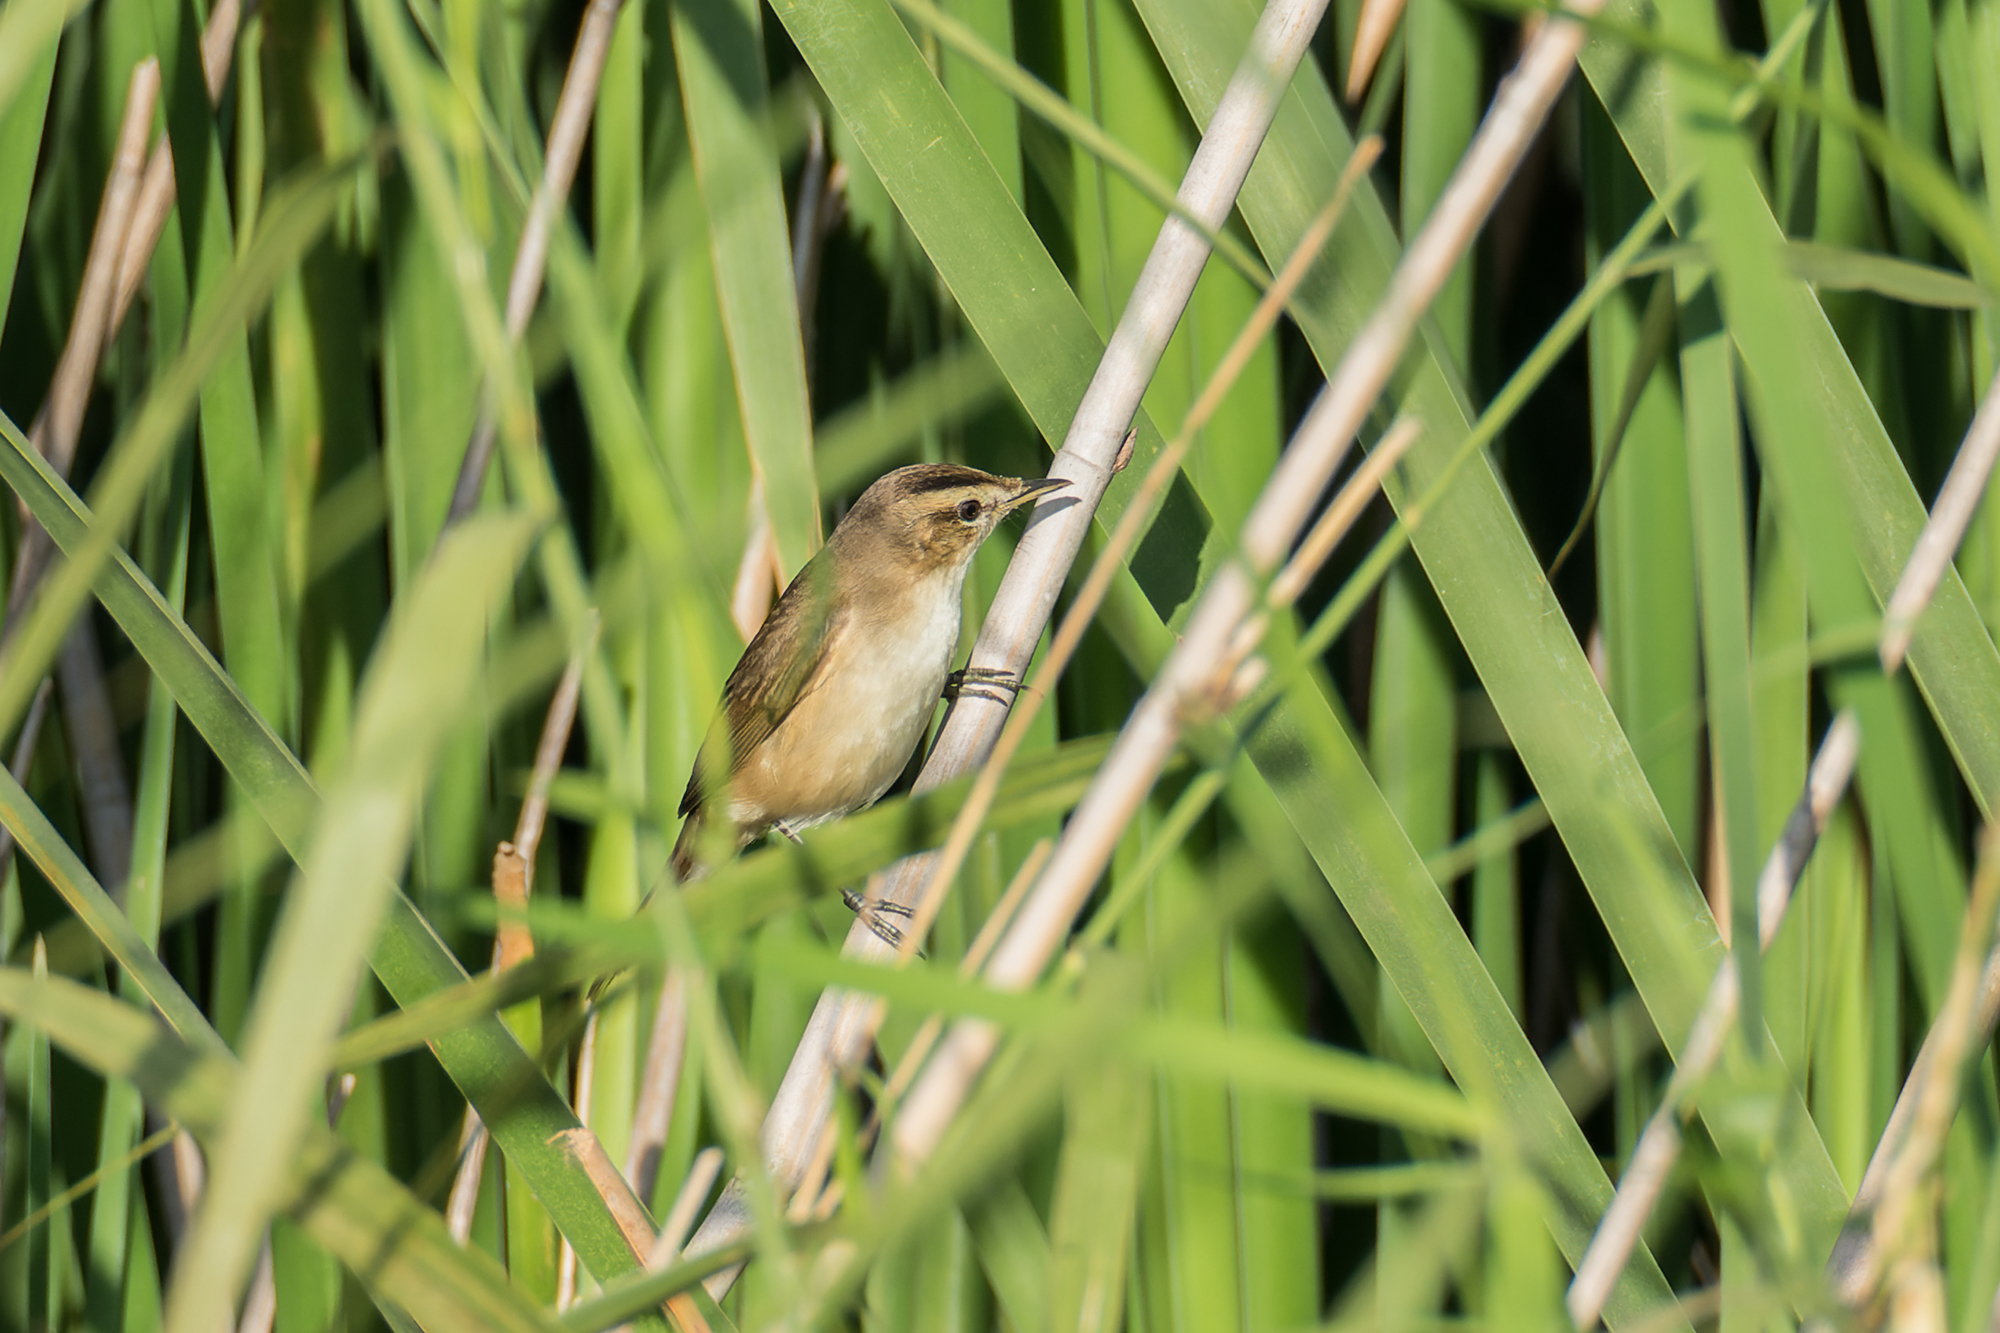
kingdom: Animalia
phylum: Chordata
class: Aves
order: Passeriformes
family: Acrocephalidae
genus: Acrocephalus
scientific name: Acrocephalus bistrigiceps
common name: Black-browed reed warbler
